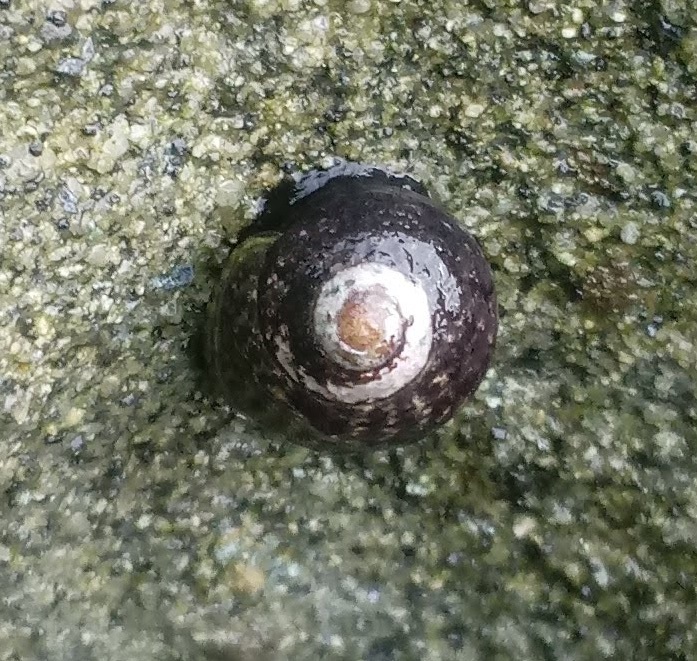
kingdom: Animalia
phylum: Mollusca
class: Gastropoda
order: Trochida
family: Tegulidae
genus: Tegula
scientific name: Tegula gallina
